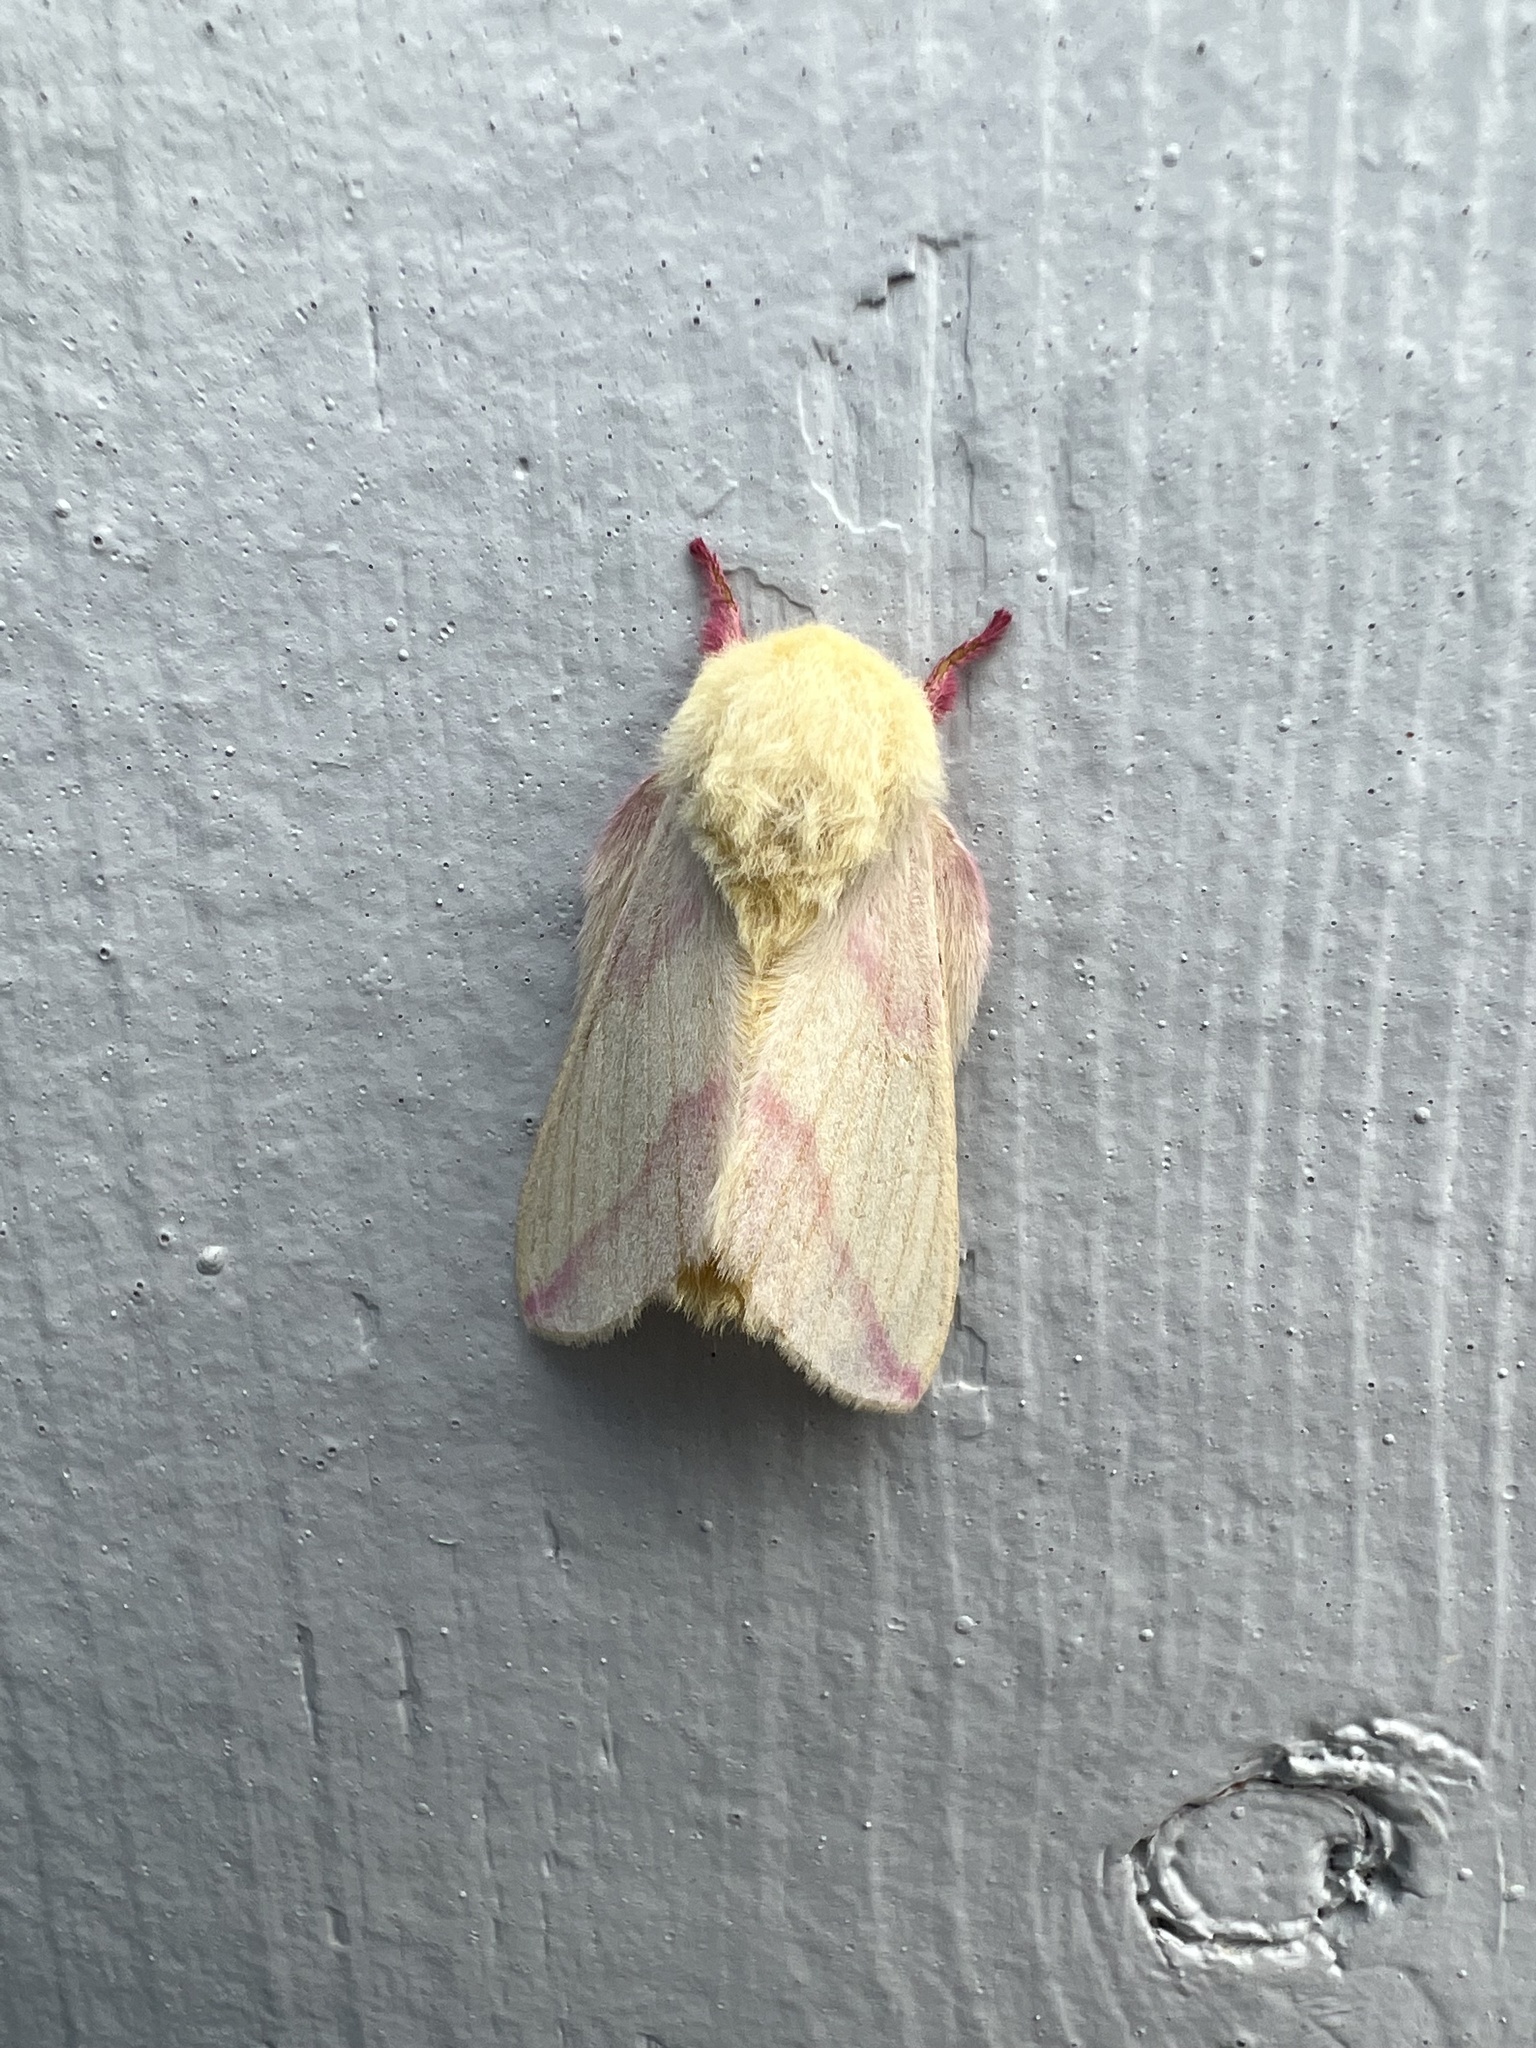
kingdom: Animalia
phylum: Arthropoda
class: Insecta
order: Lepidoptera
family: Saturniidae
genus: Dryocampa
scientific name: Dryocampa rubicunda
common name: Rosy maple moth
